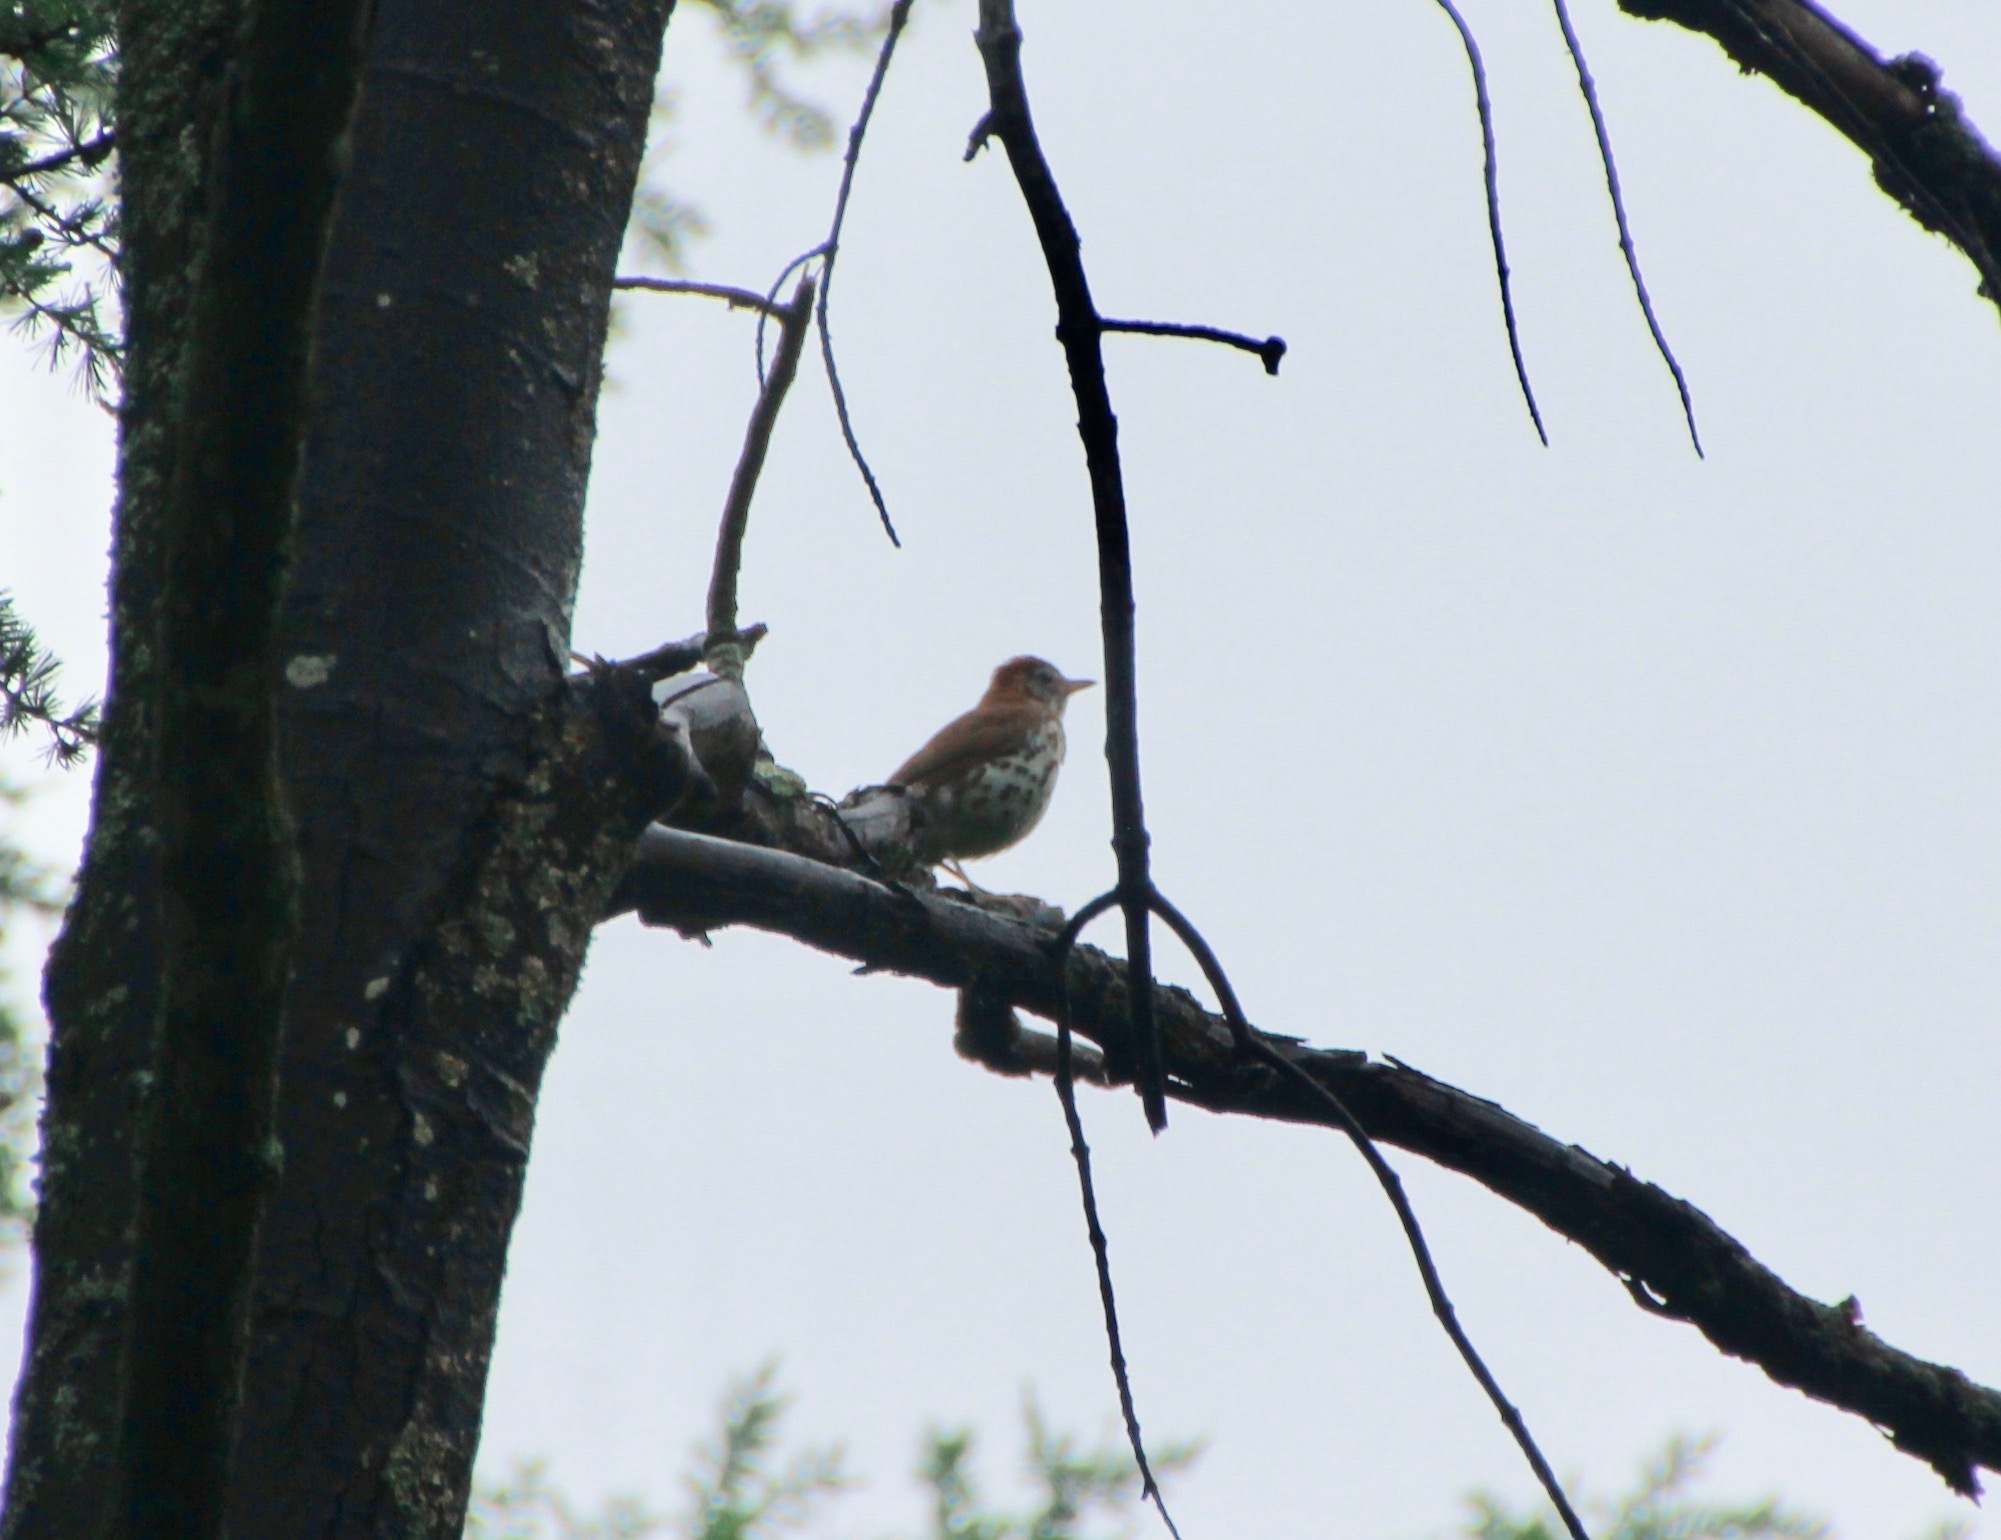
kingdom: Animalia
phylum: Chordata
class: Aves
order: Passeriformes
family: Turdidae
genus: Hylocichla
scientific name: Hylocichla mustelina
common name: Wood thrush
